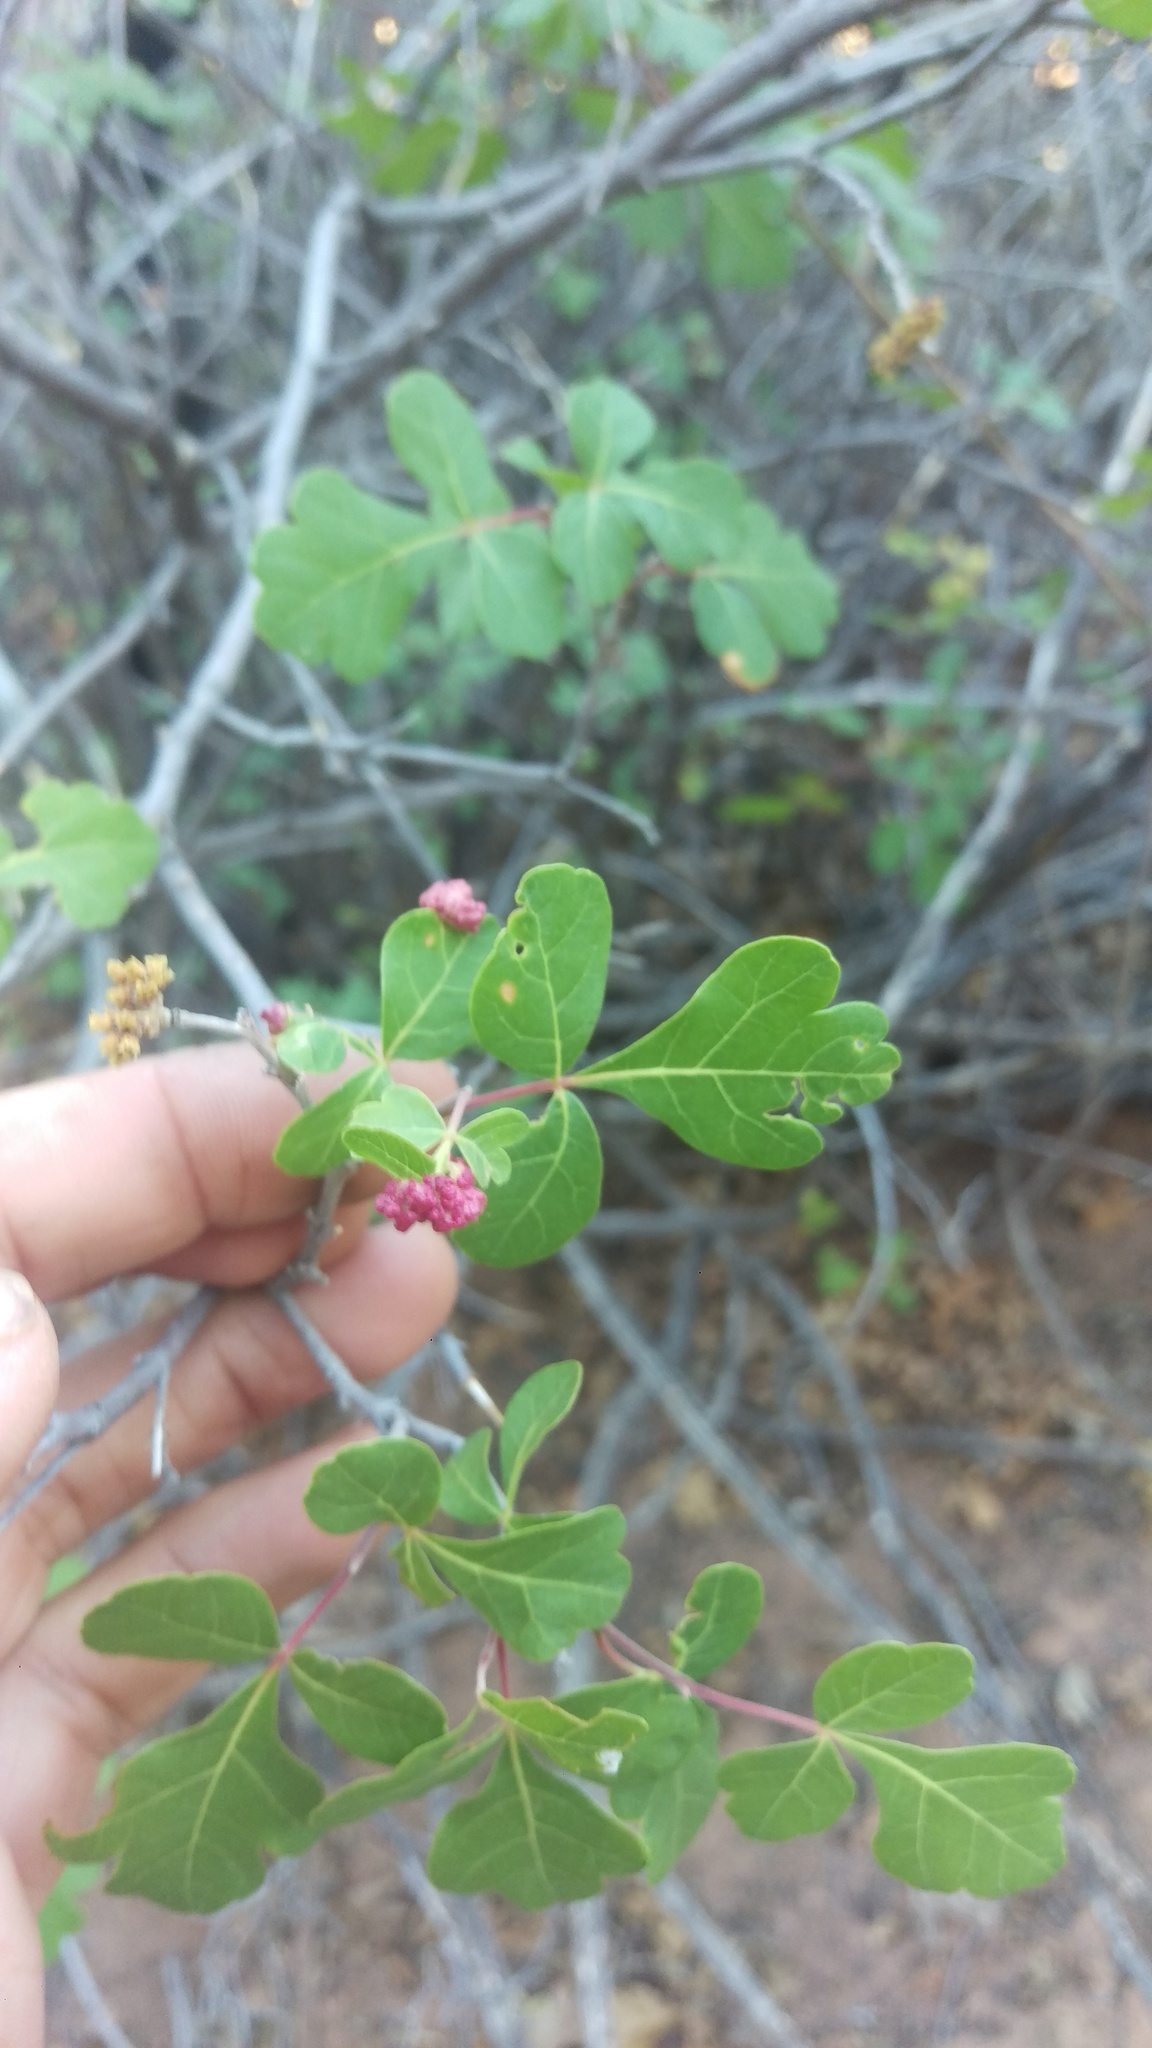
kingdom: Plantae
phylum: Tracheophyta
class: Magnoliopsida
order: Sapindales
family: Anacardiaceae
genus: Rhus
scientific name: Rhus aromatica
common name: Aromatic sumac
